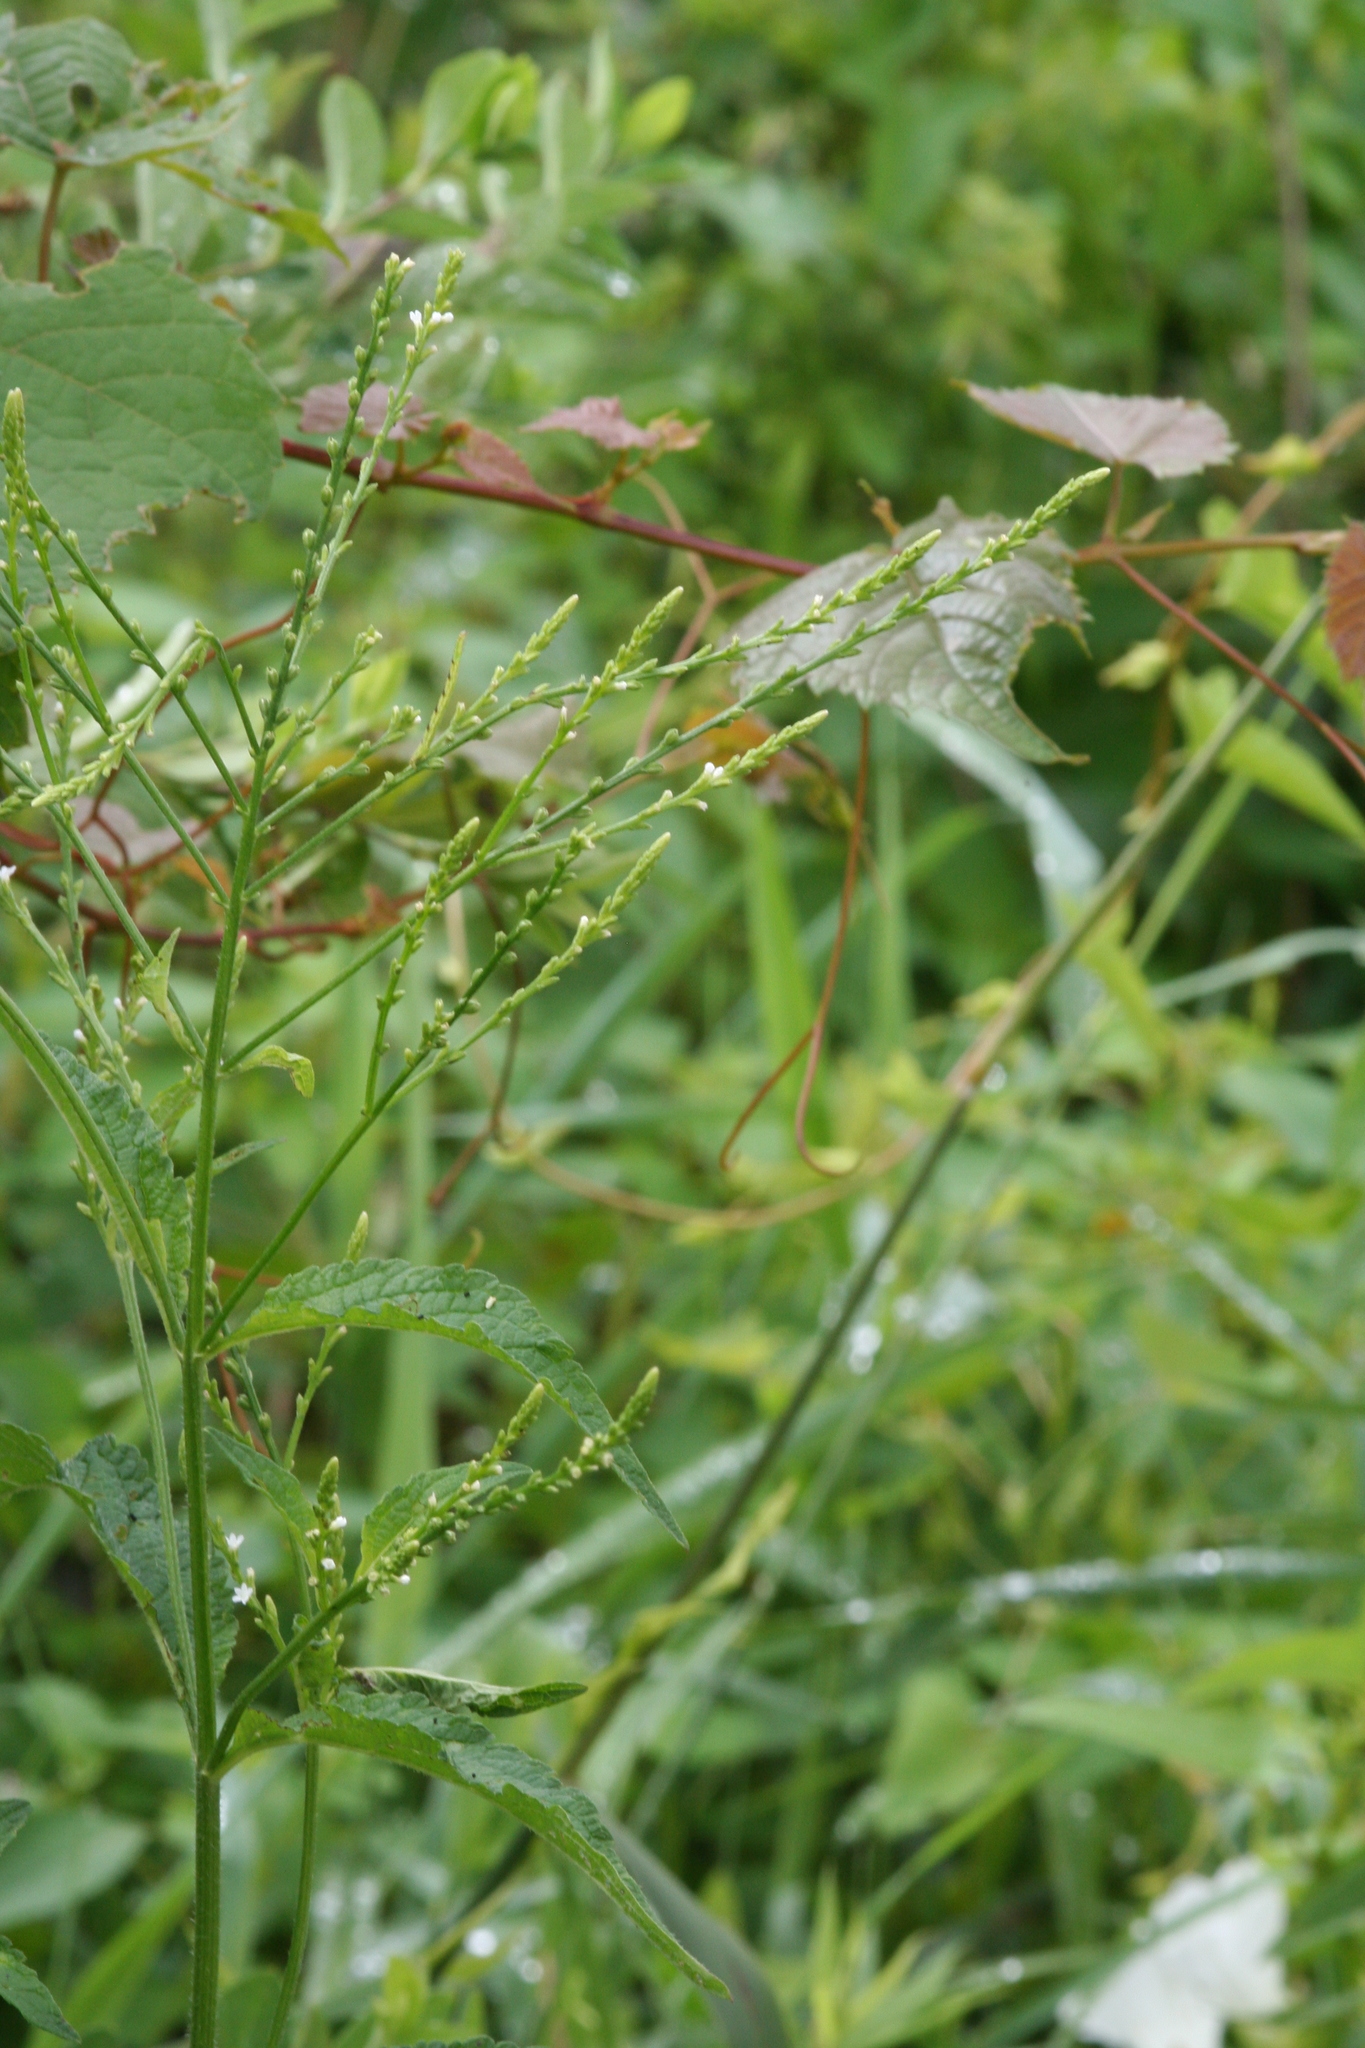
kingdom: Plantae
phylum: Tracheophyta
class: Magnoliopsida
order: Lamiales
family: Verbenaceae
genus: Verbena
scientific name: Verbena urticifolia
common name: Nettle-leaved vervain
